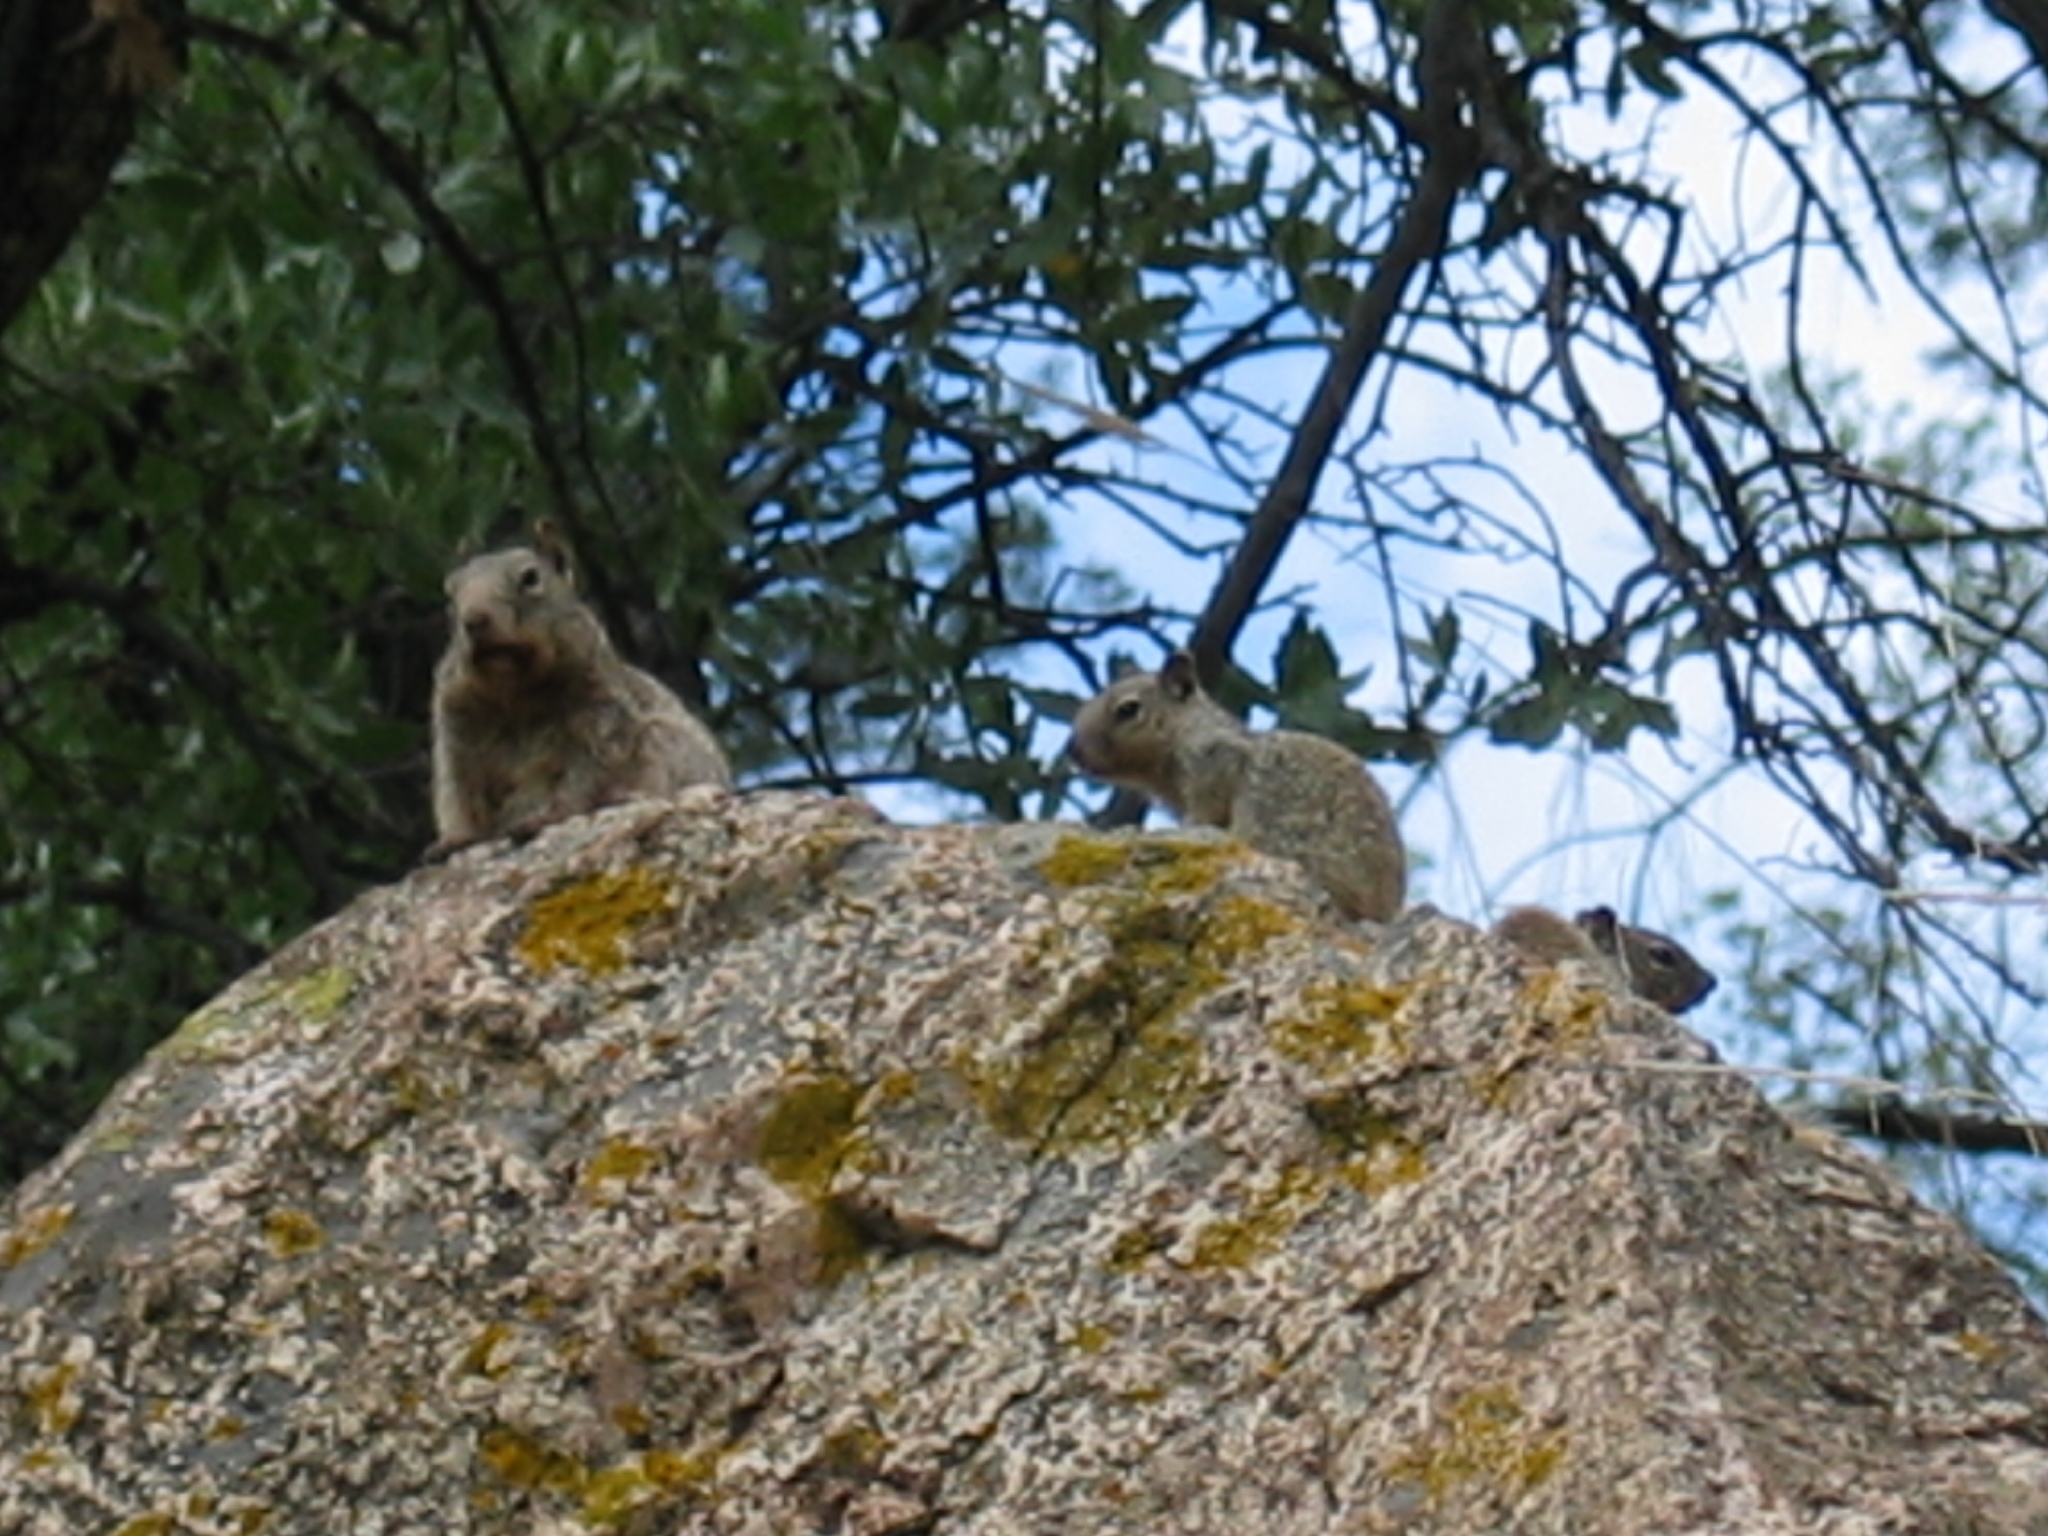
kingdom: Animalia
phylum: Chordata
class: Mammalia
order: Rodentia
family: Sciuridae
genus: Otospermophilus
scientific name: Otospermophilus variegatus
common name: Rock squirrel
